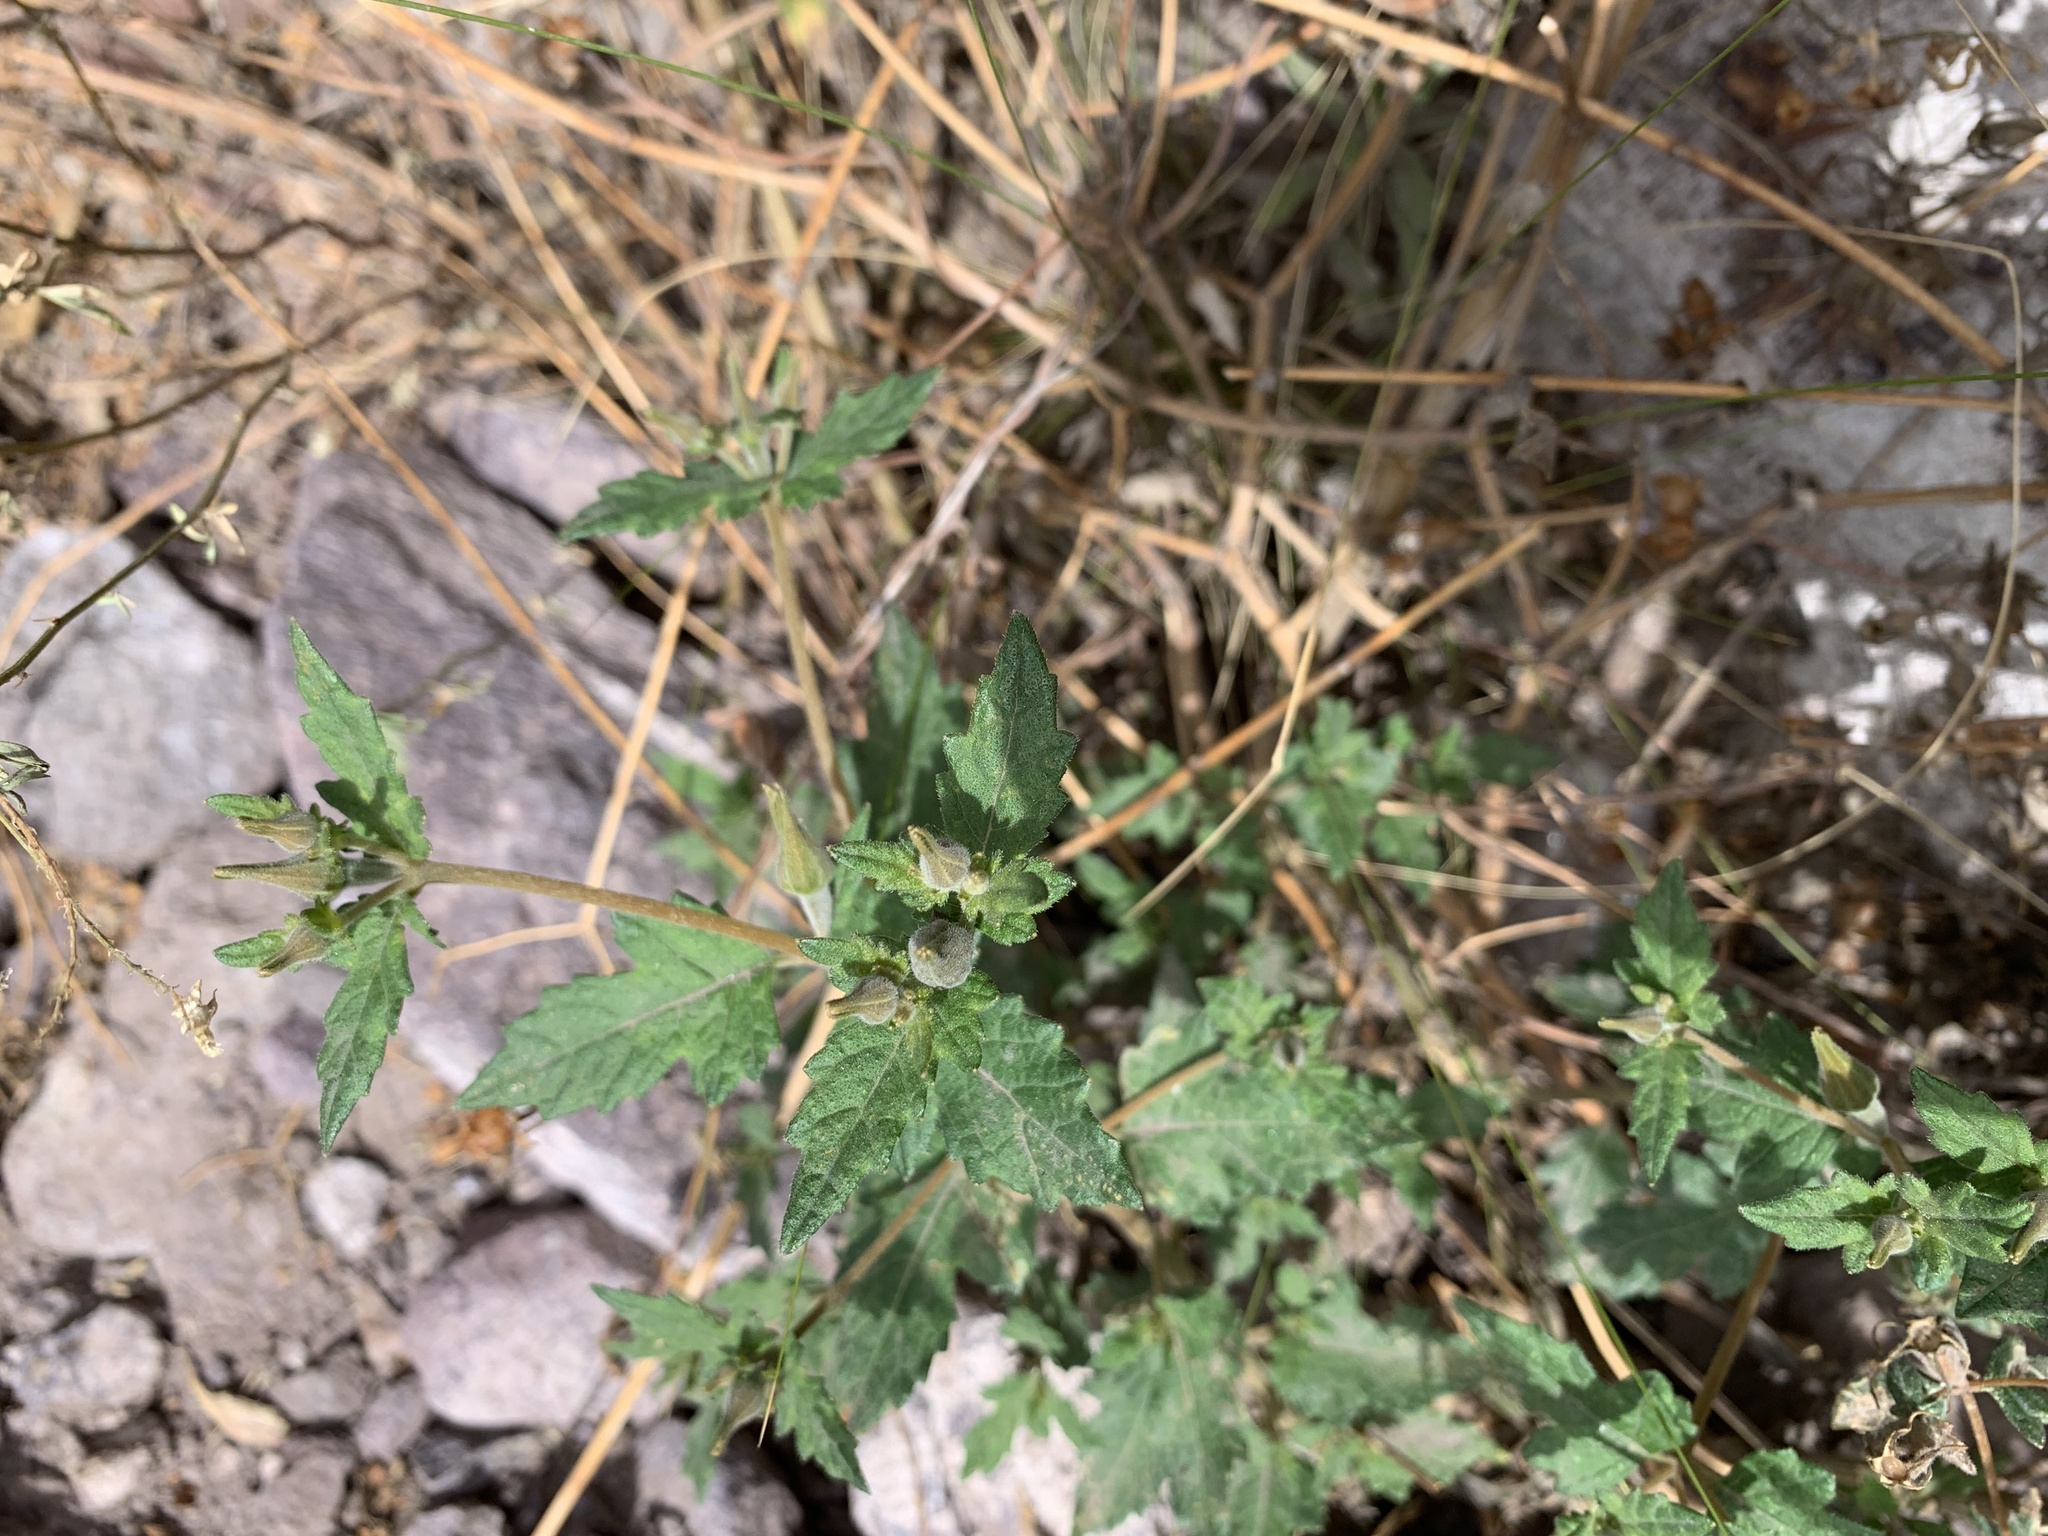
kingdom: Plantae
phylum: Tracheophyta
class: Magnoliopsida
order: Cornales
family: Loasaceae
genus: Mentzelia
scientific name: Mentzelia scabra
